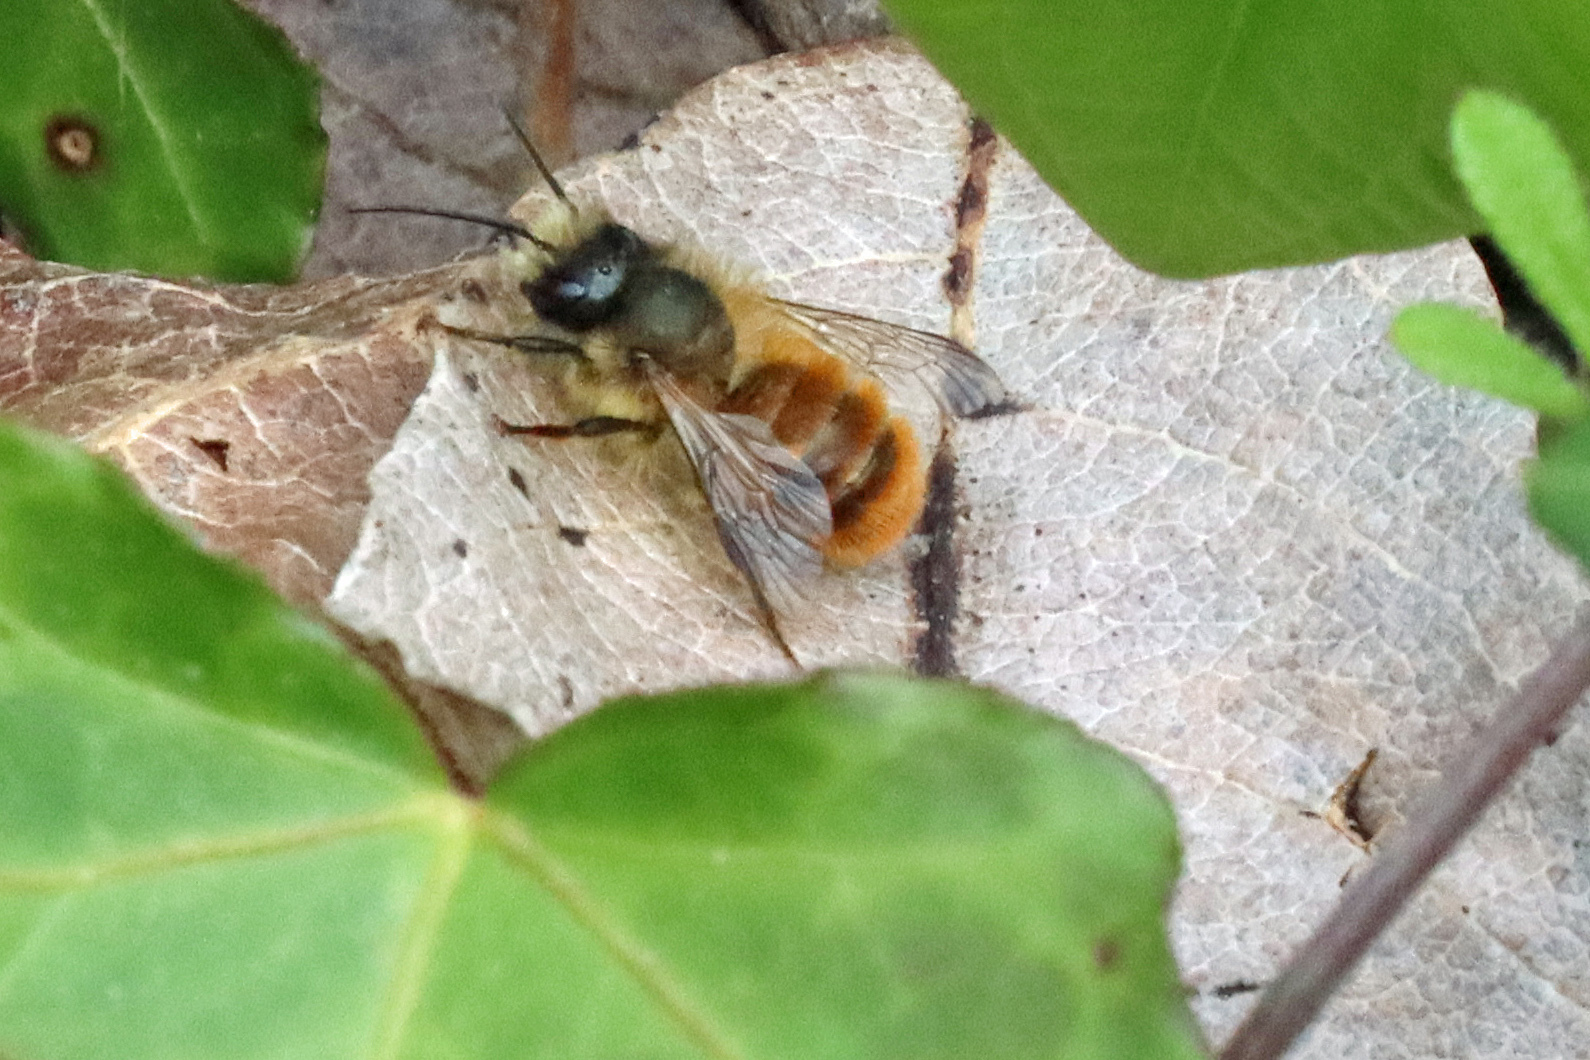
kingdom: Animalia
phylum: Arthropoda
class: Insecta
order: Hymenoptera
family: Megachilidae
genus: Osmia
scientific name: Osmia bicornis
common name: Red mason bee
